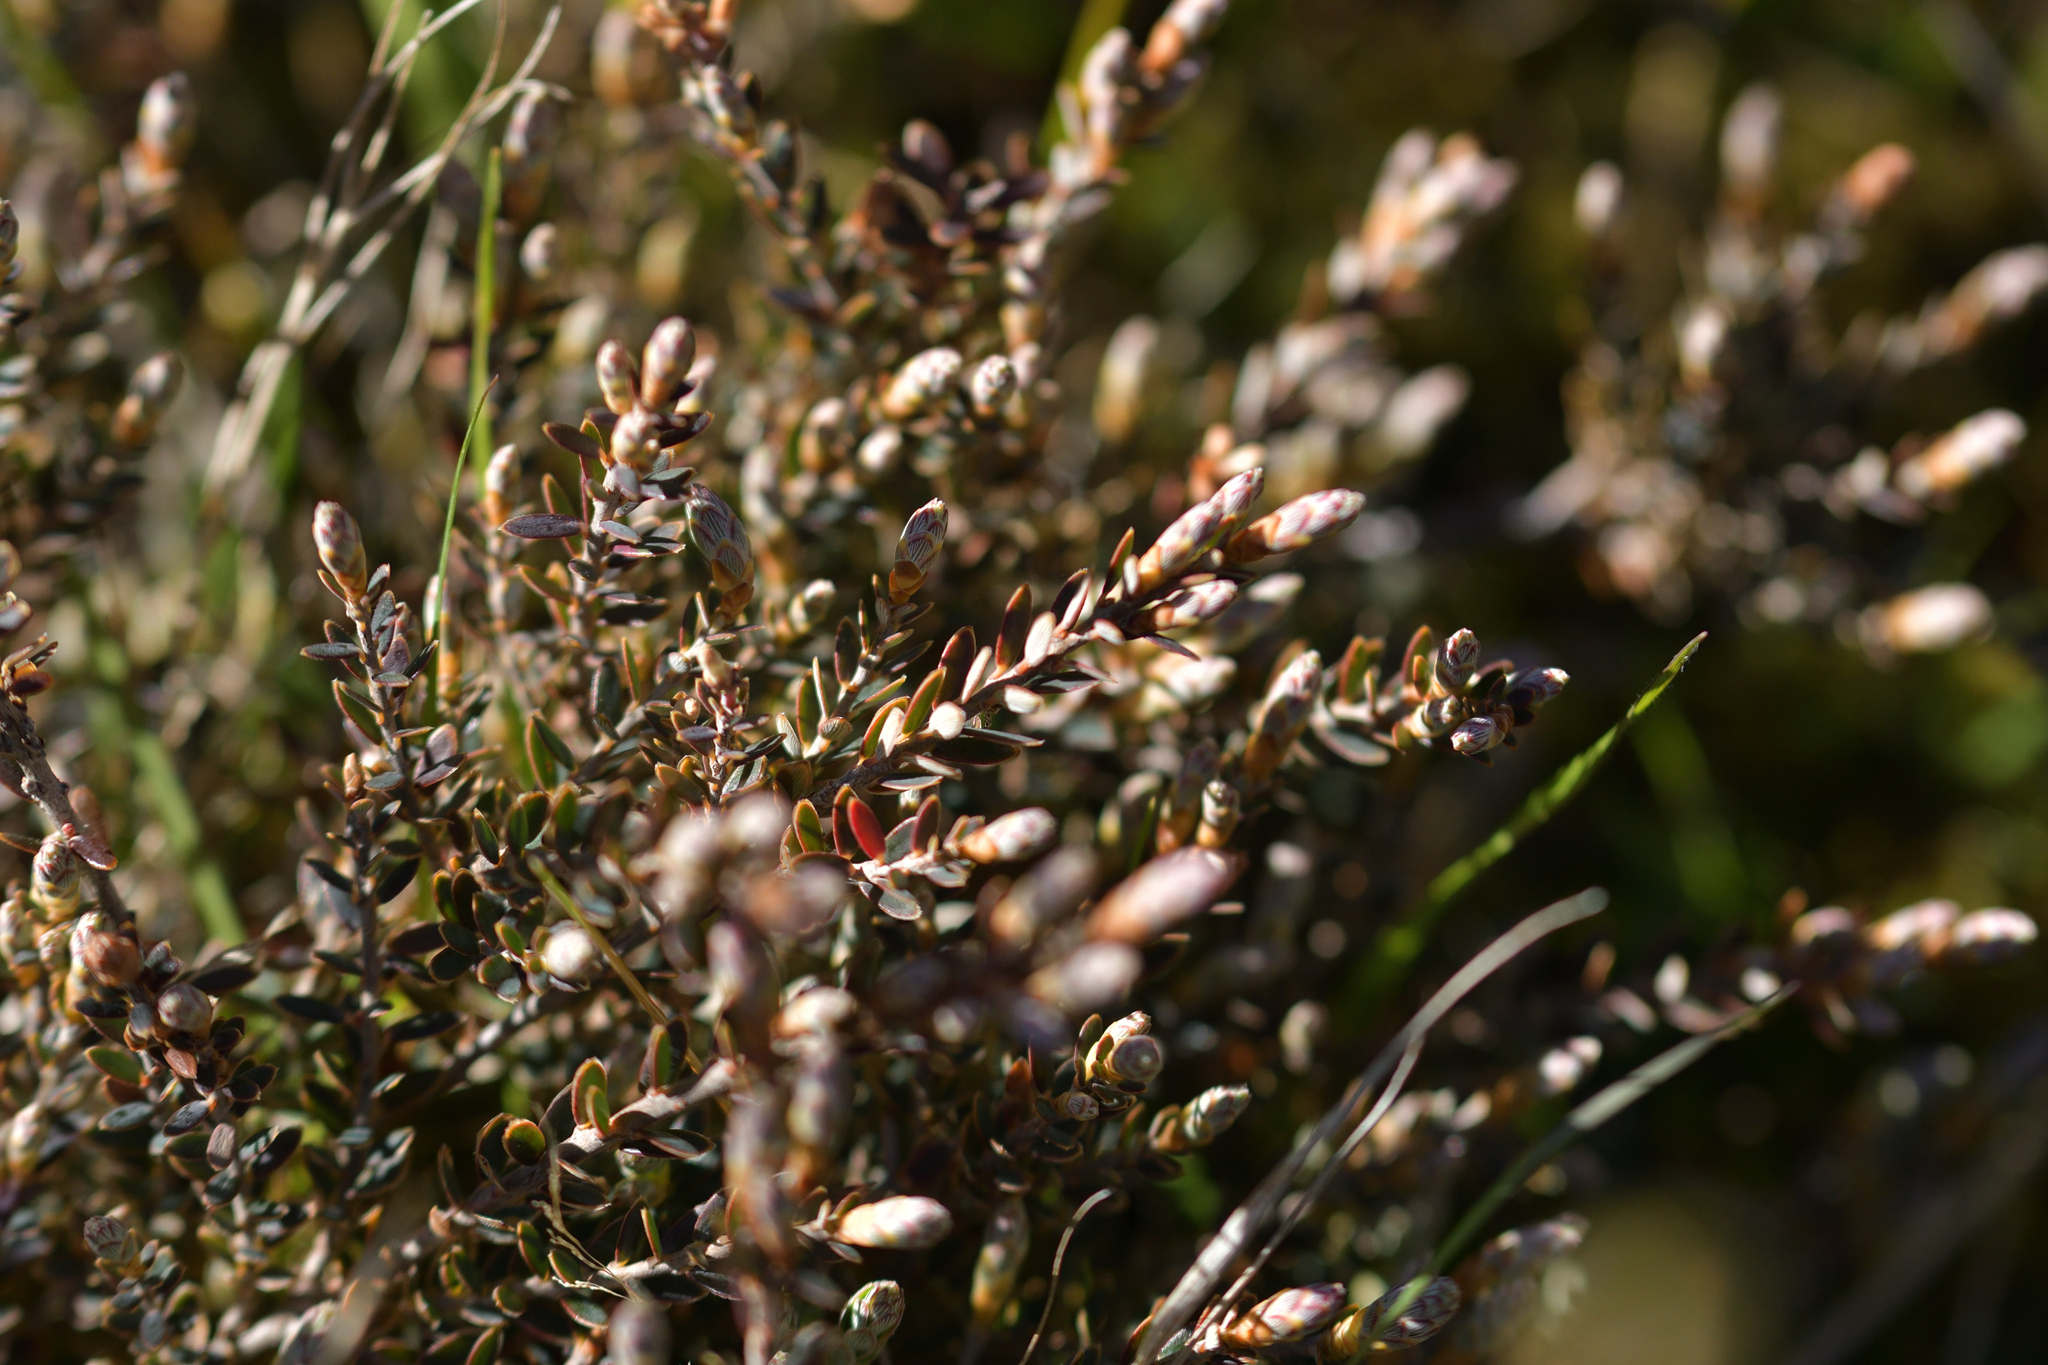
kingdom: Plantae
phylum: Tracheophyta
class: Magnoliopsida
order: Ericales
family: Ericaceae
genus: Acrothamnus
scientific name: Acrothamnus colensoi
